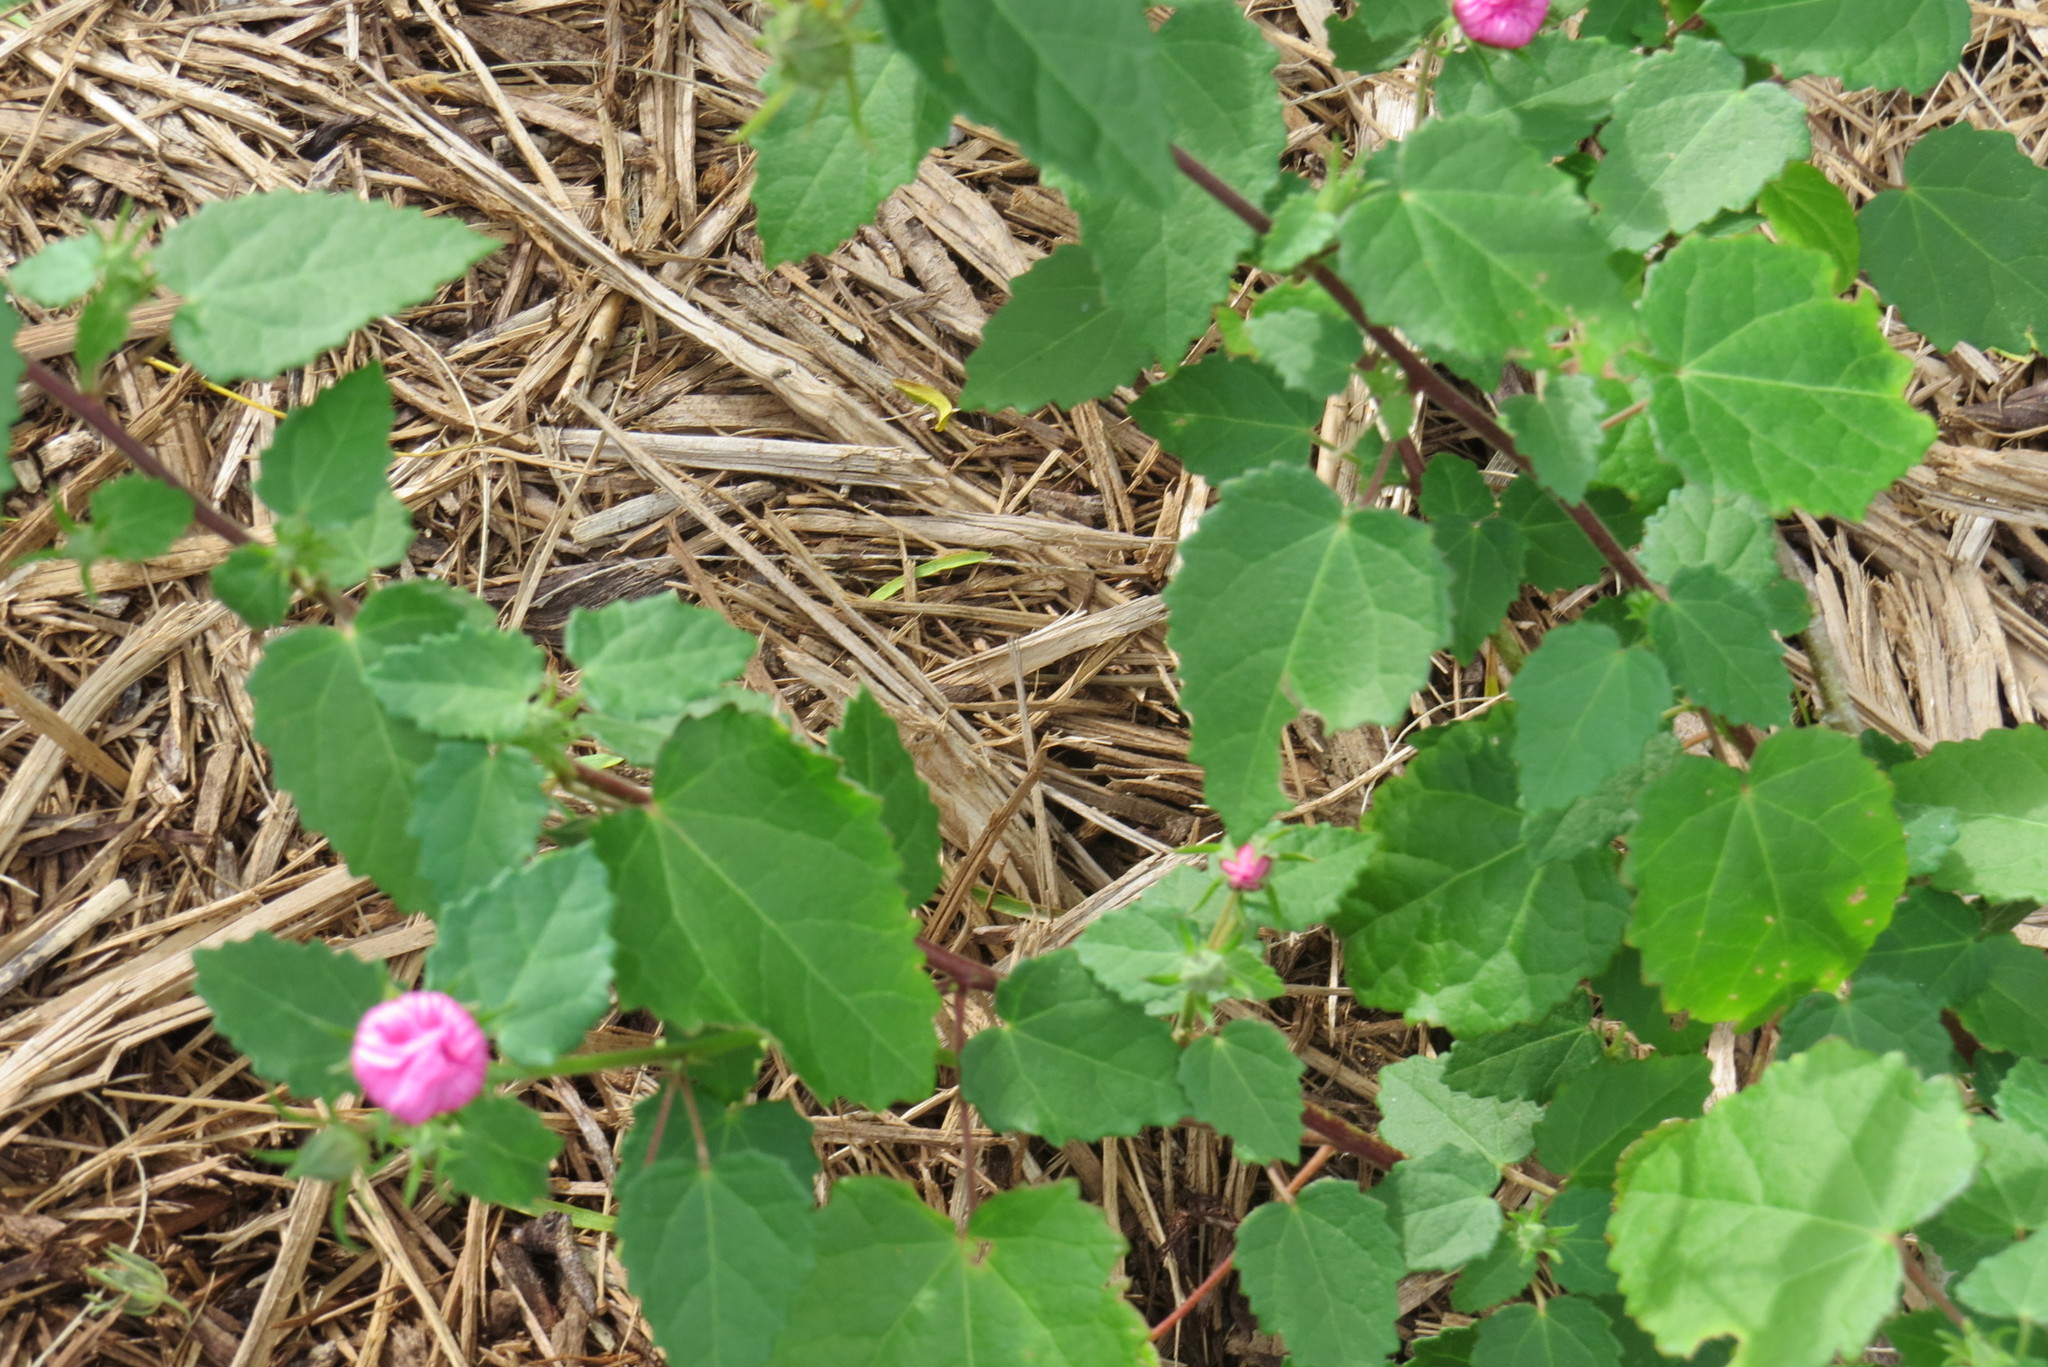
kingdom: Plantae
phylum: Tracheophyta
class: Magnoliopsida
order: Malvales
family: Malvaceae
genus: Pavonia
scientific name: Pavonia lasiopetala
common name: Texas swamp-mallow
